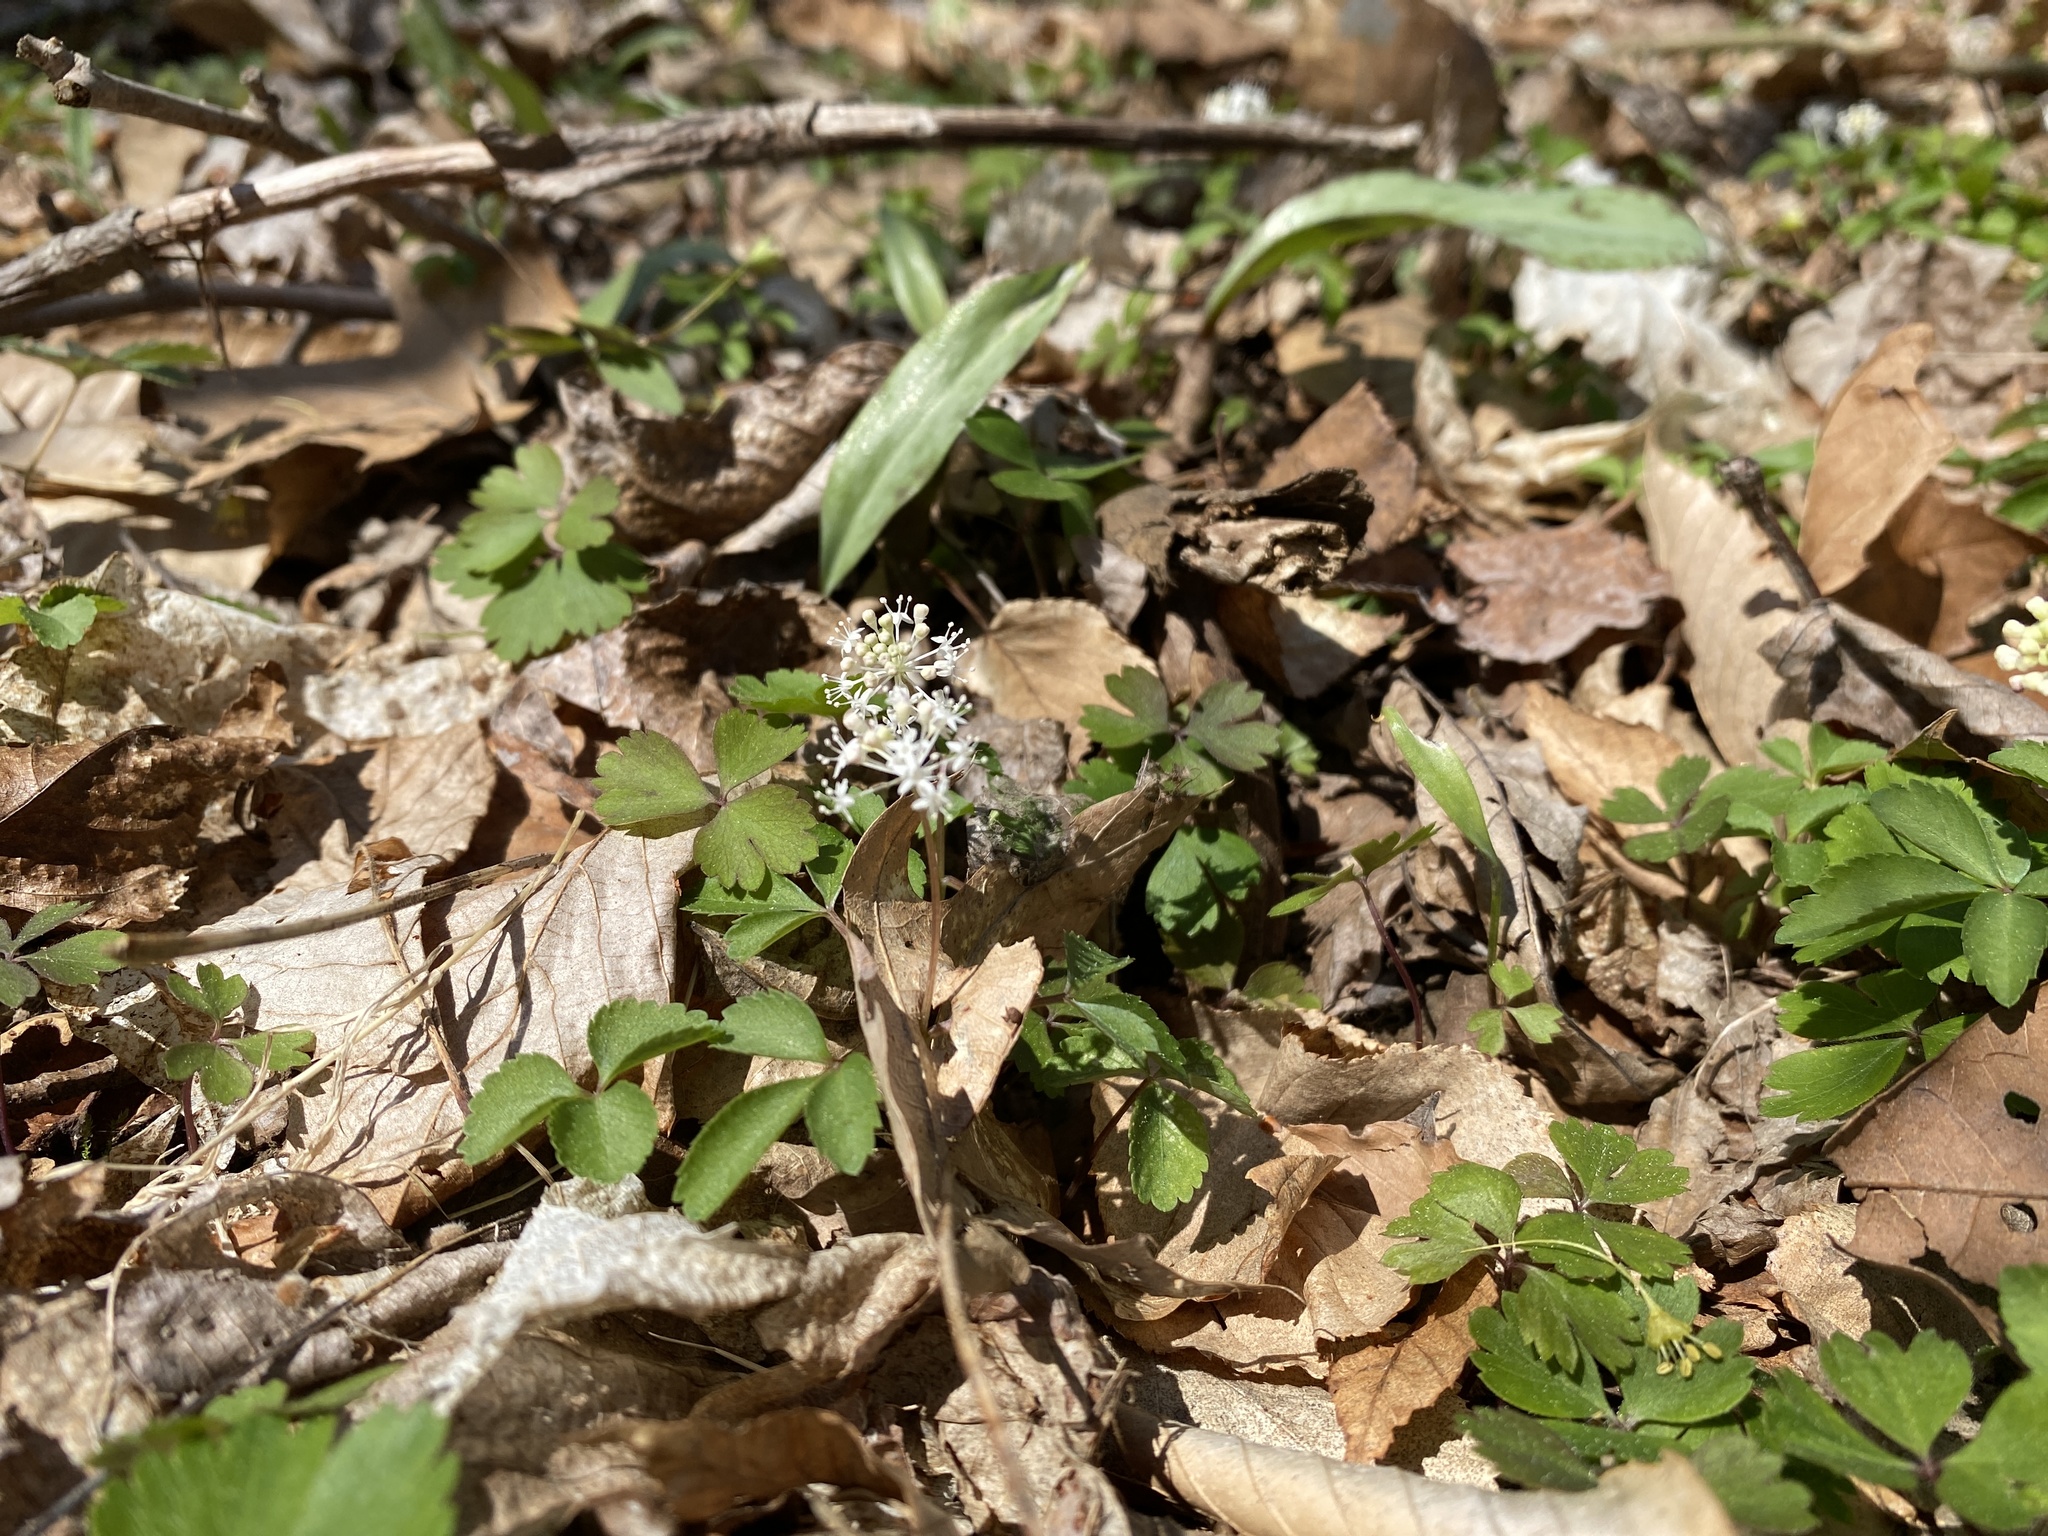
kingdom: Plantae
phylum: Tracheophyta
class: Magnoliopsida
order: Apiales
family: Araliaceae
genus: Panax
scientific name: Panax trifolius
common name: Dwarf ginseng
